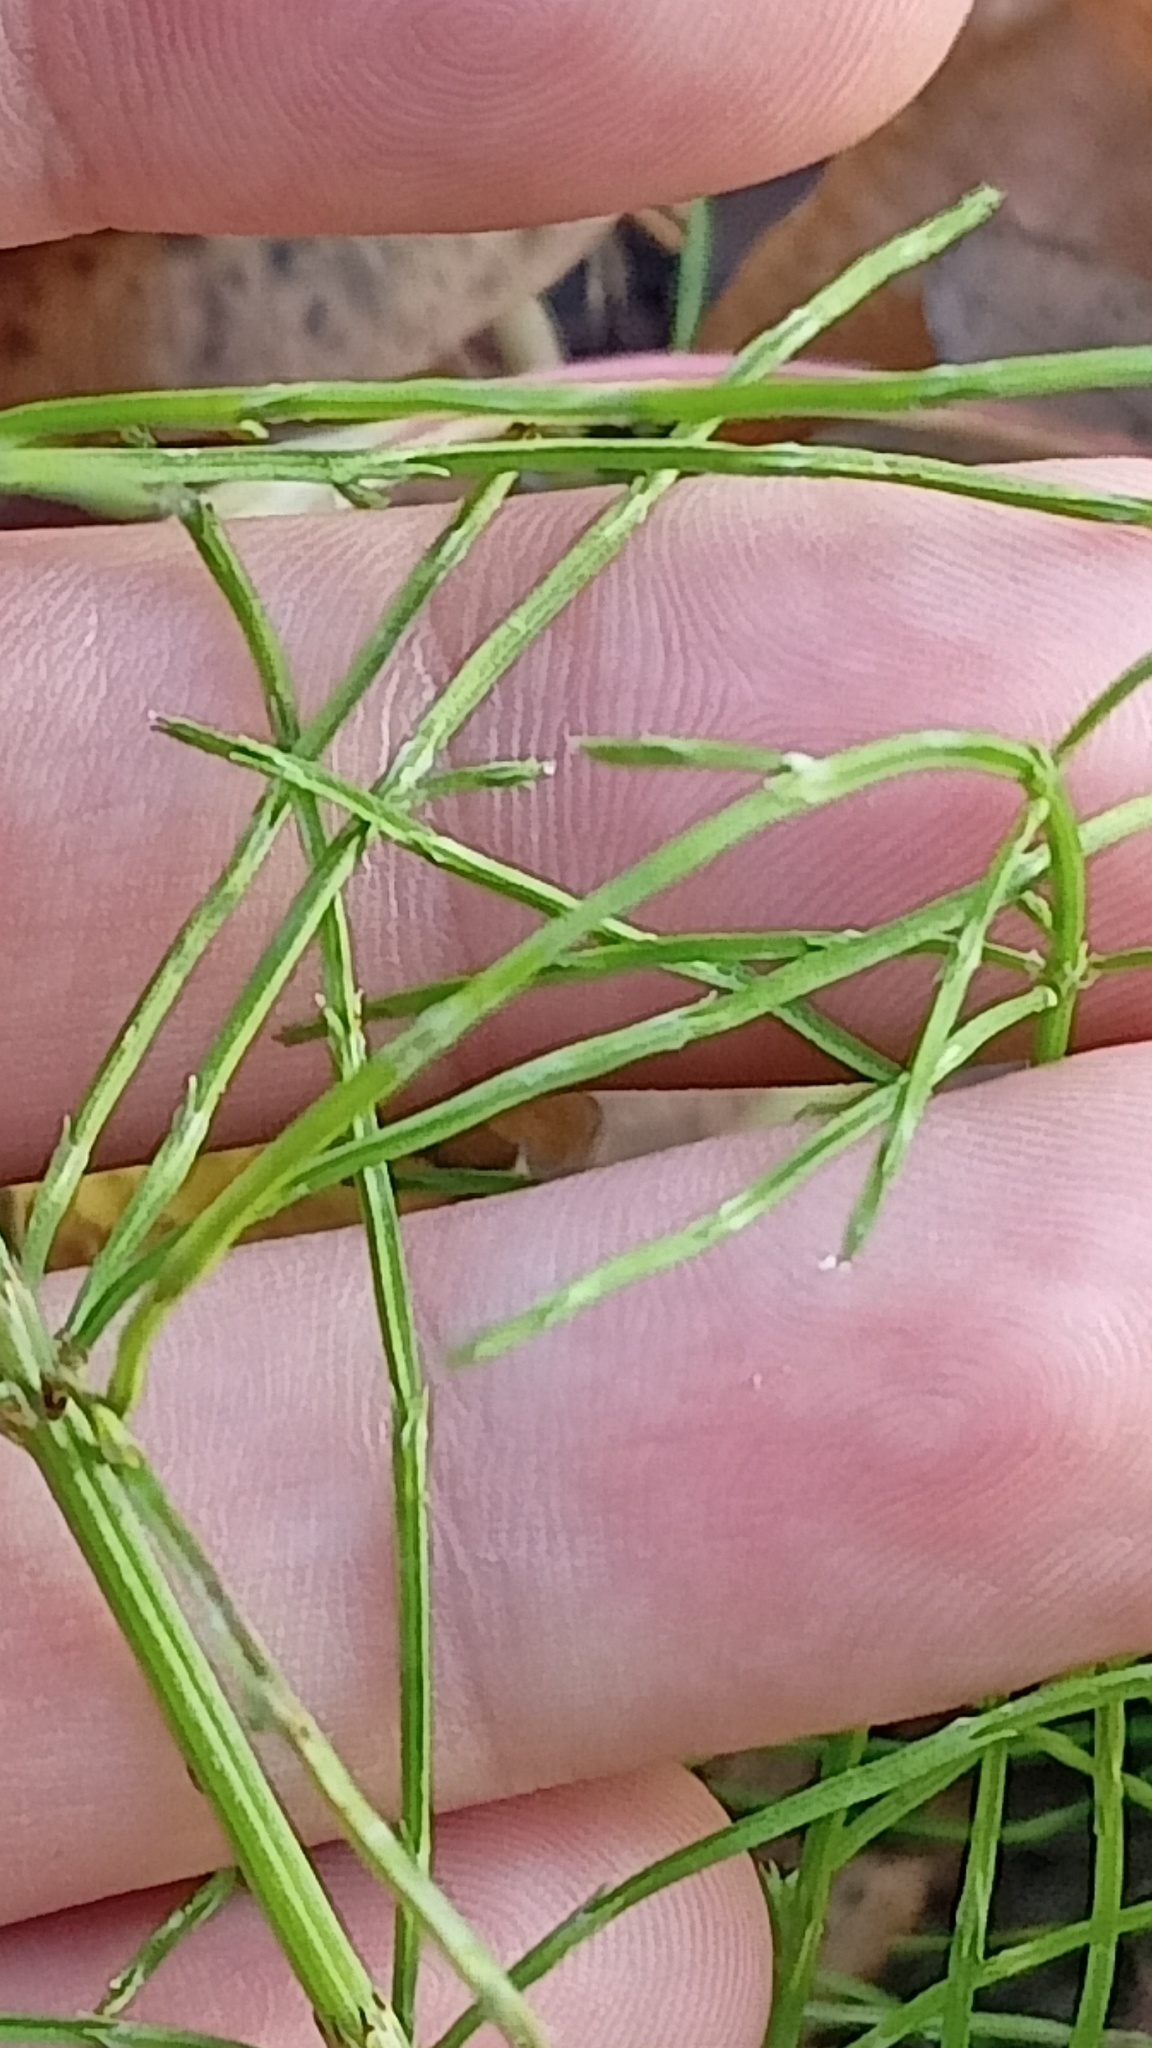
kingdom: Plantae
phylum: Tracheophyta
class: Polypodiopsida
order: Equisetales
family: Equisetaceae
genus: Equisetum
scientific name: Equisetum arvense
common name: Field horsetail
